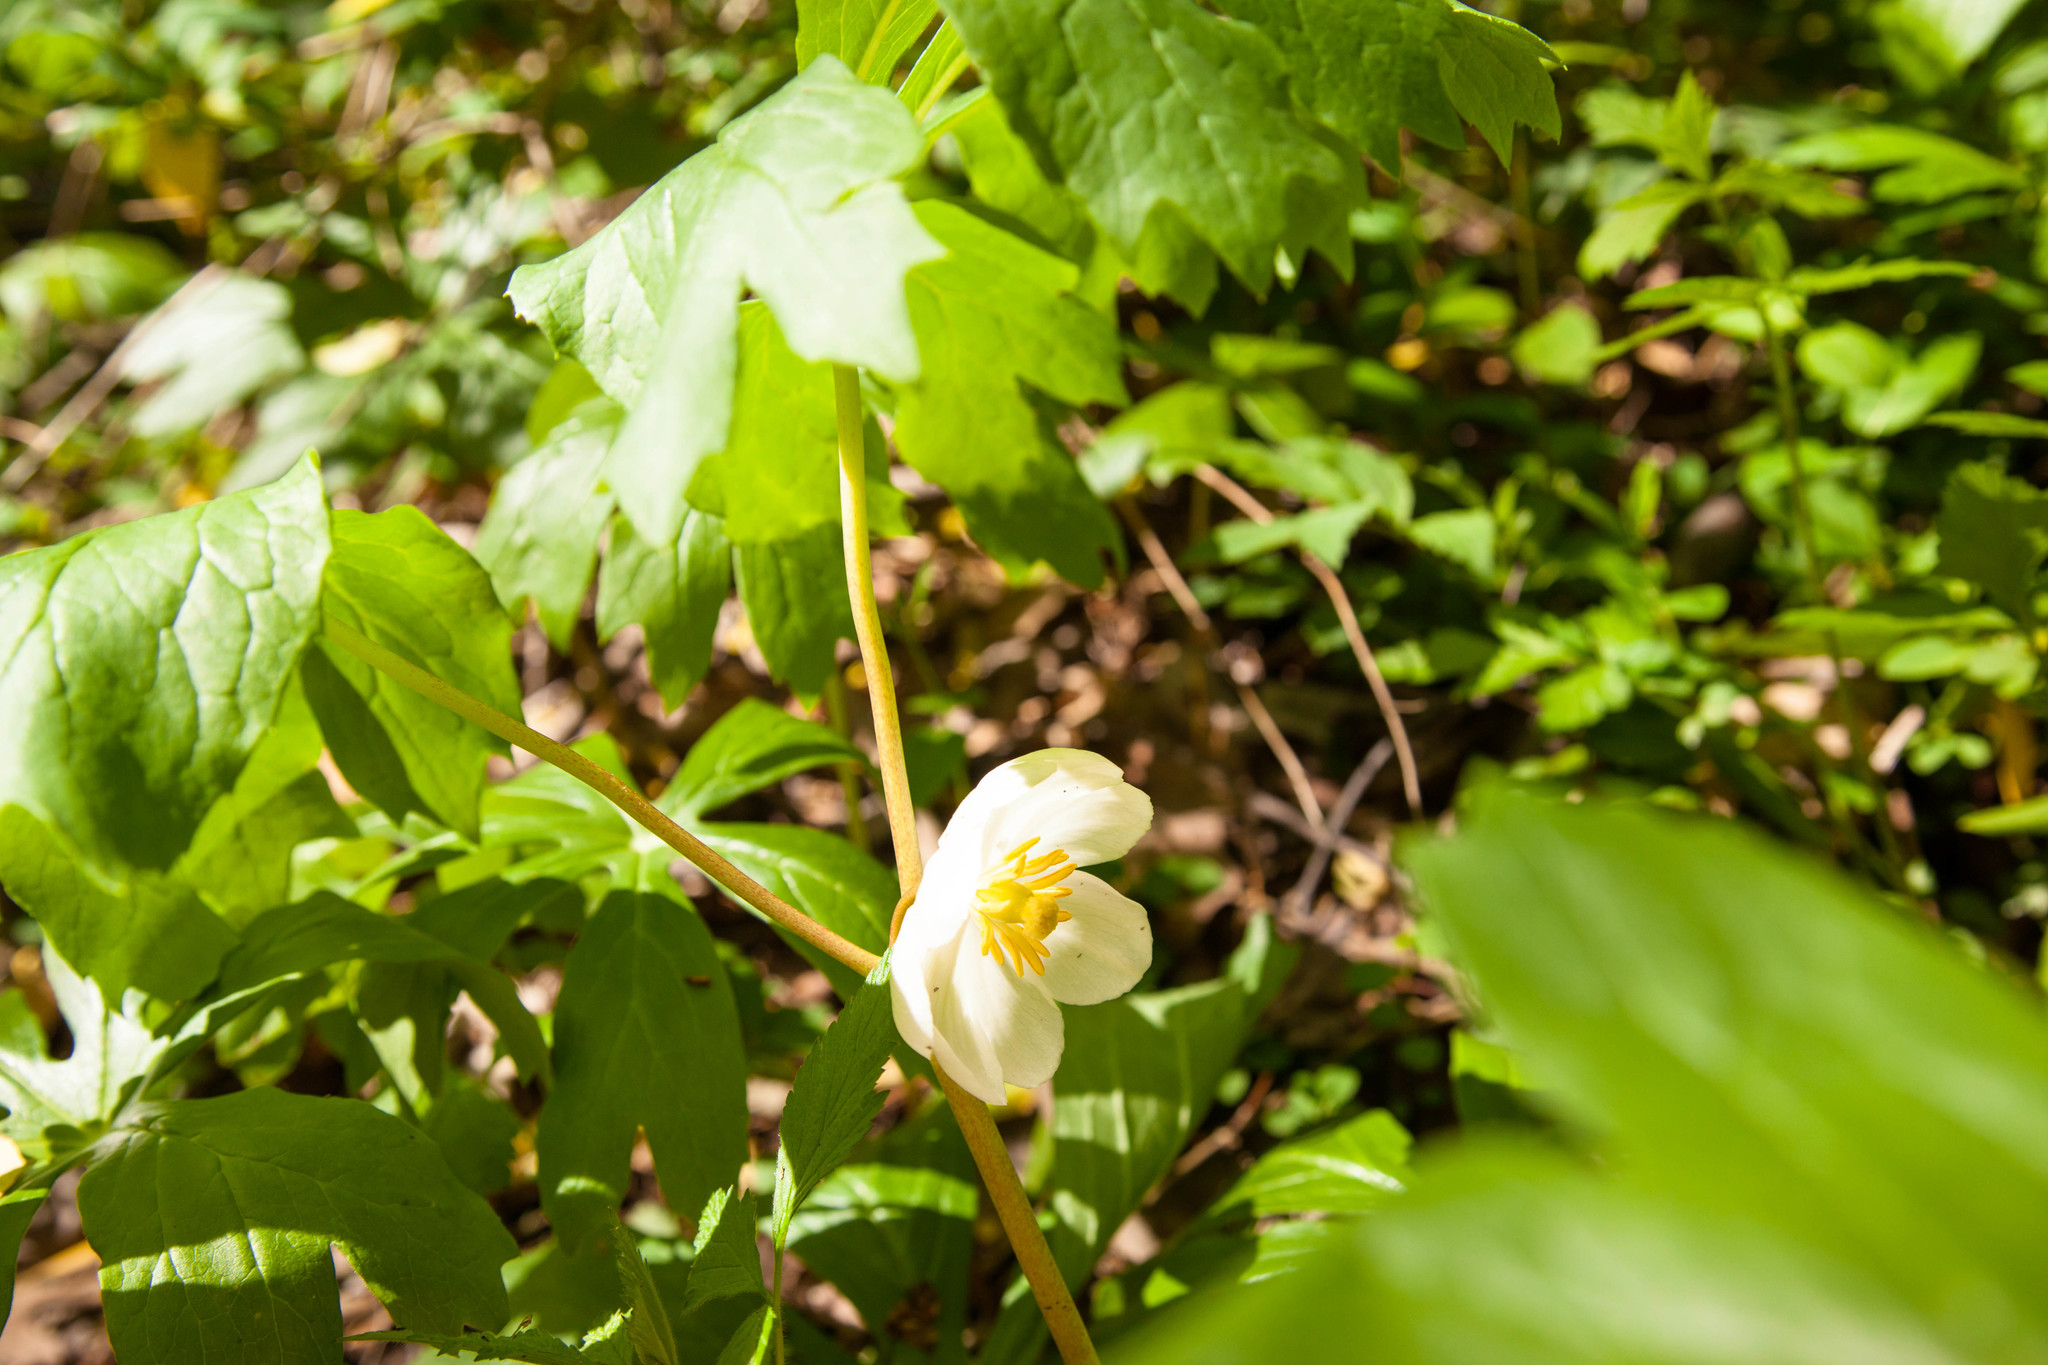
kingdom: Plantae
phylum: Tracheophyta
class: Magnoliopsida
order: Ranunculales
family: Berberidaceae
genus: Podophyllum
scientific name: Podophyllum peltatum
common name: Wild mandrake
